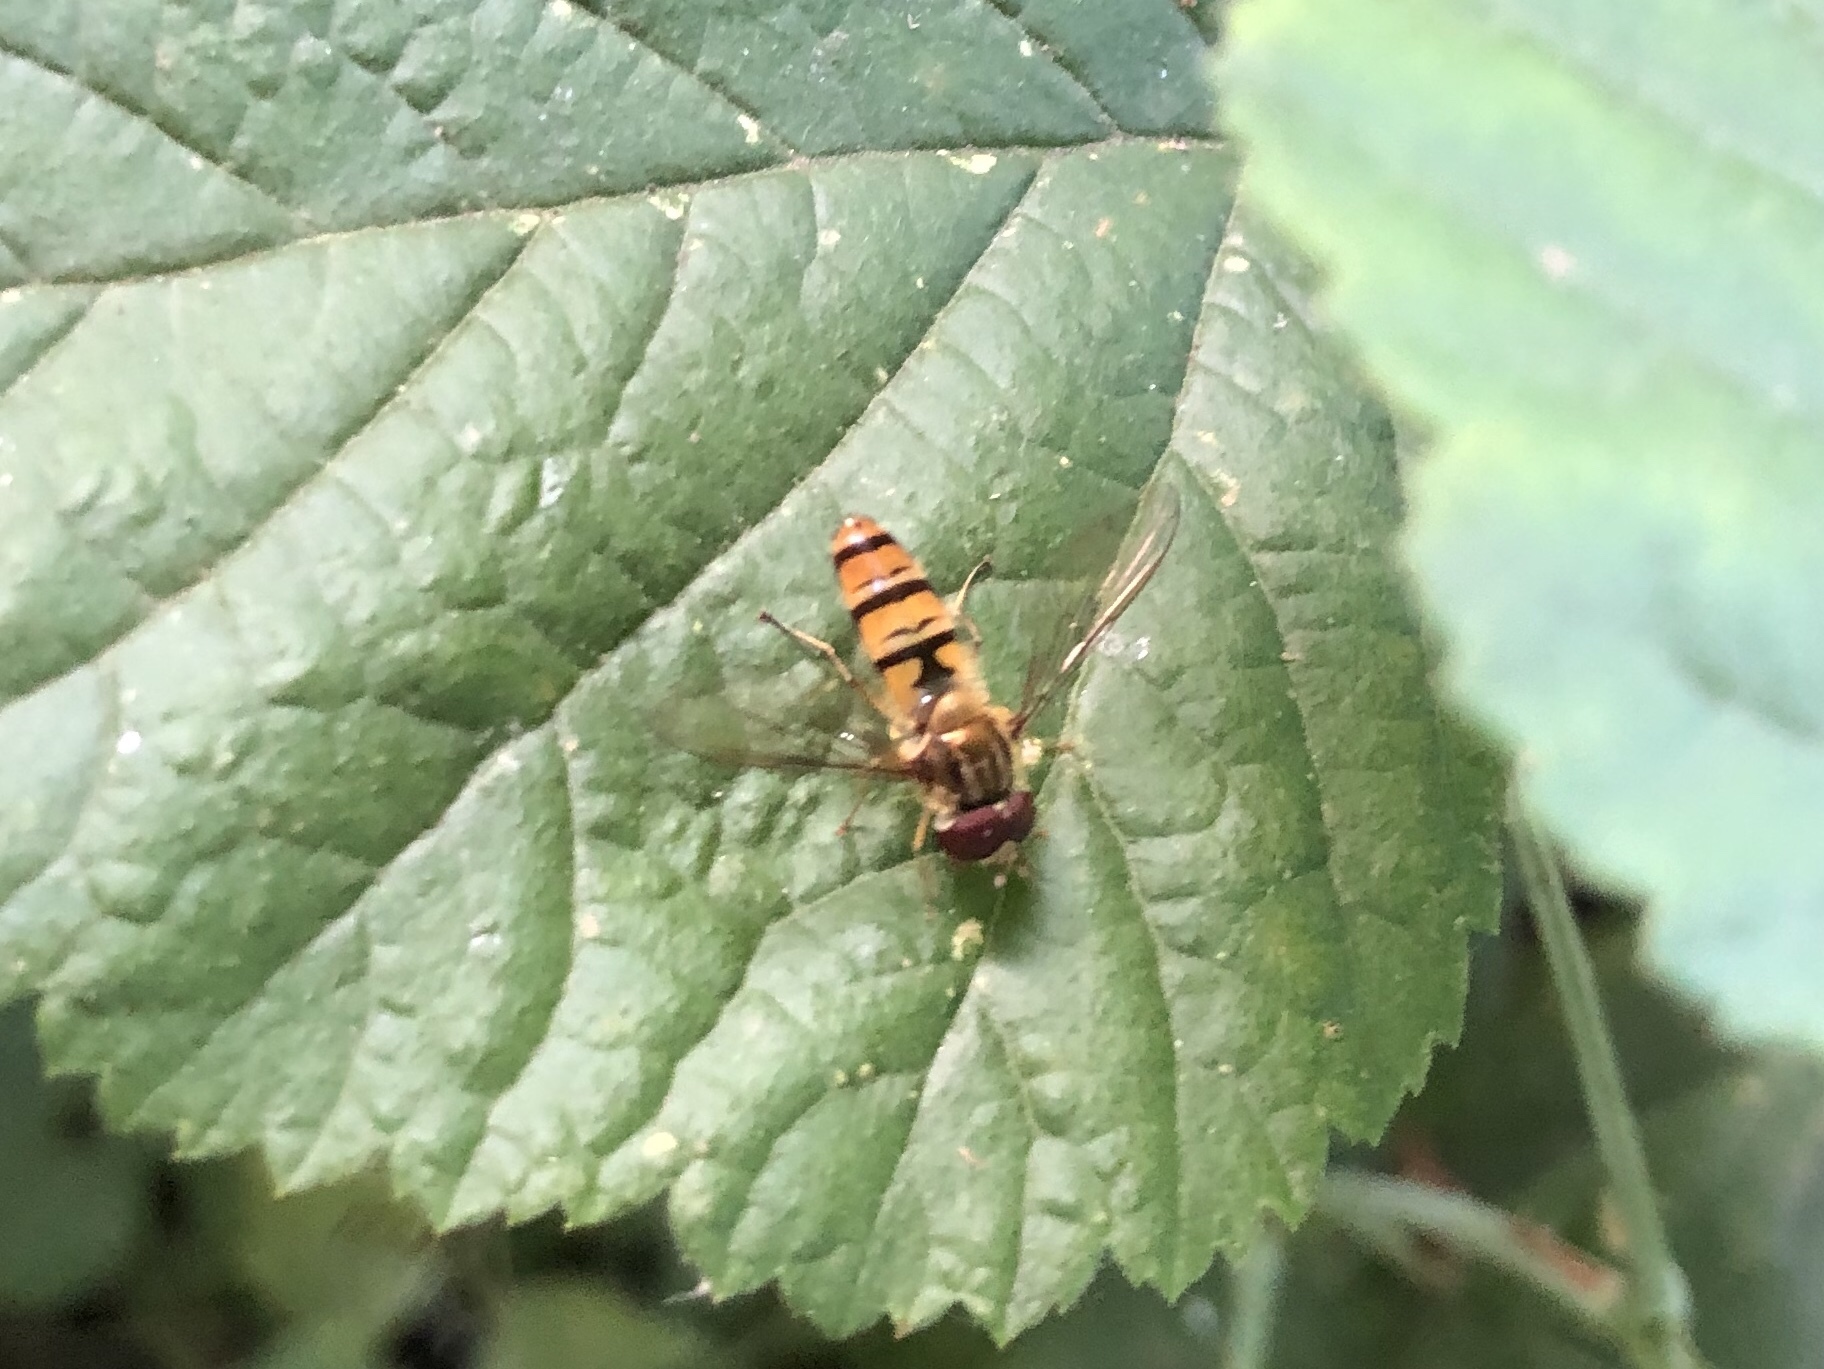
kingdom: Animalia
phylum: Arthropoda
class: Insecta
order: Diptera
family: Syrphidae
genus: Episyrphus
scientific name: Episyrphus balteatus
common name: Marmalade hoverfly
